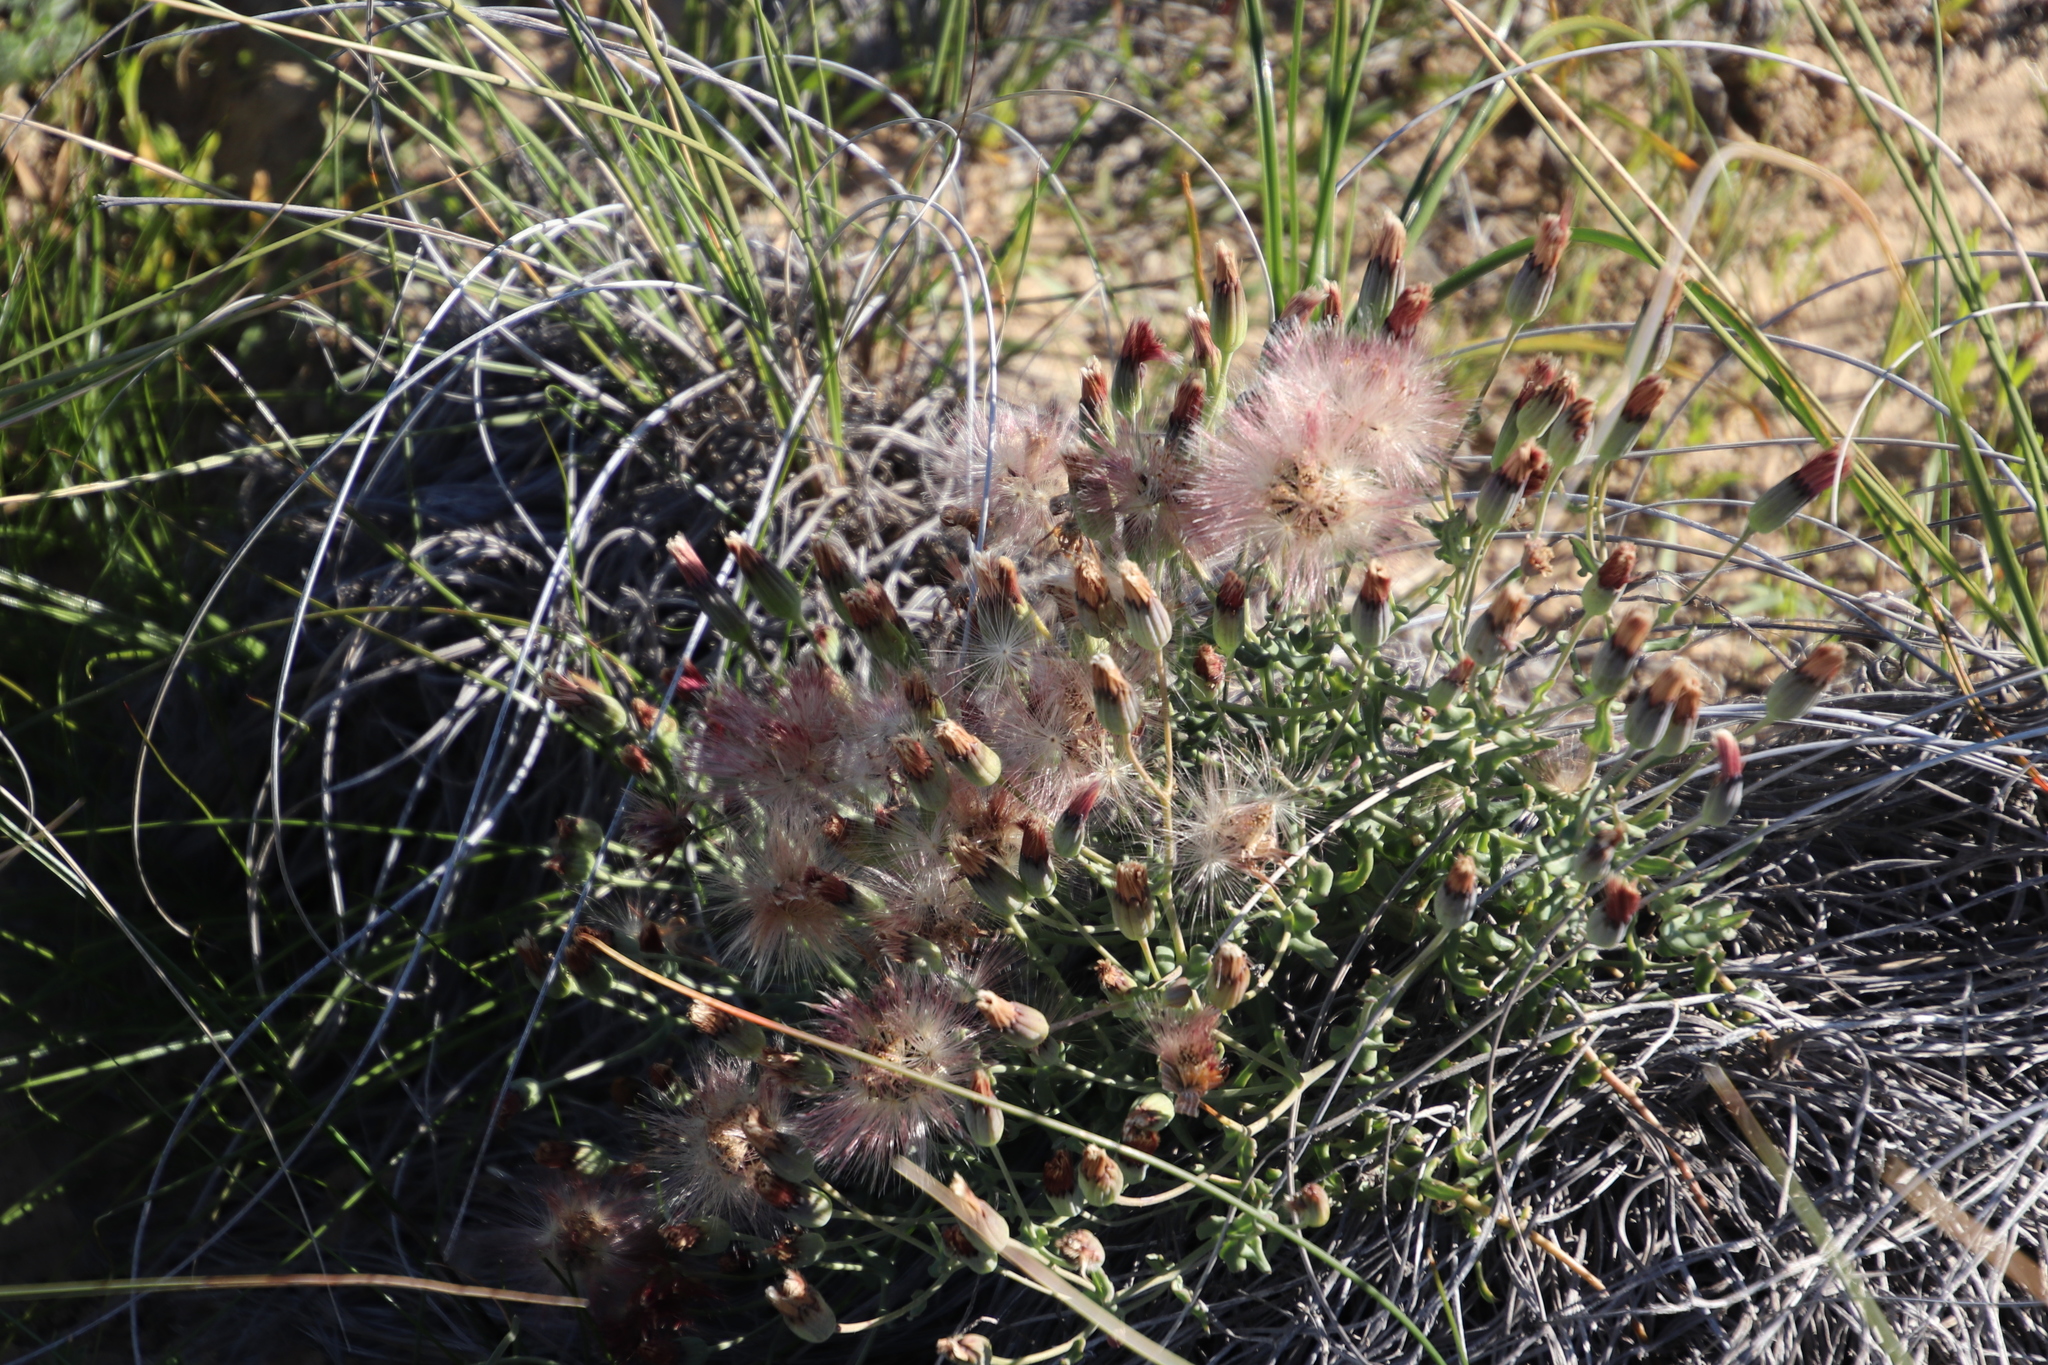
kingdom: Plantae
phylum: Tracheophyta
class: Magnoliopsida
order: Asterales
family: Asteraceae
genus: Othonna
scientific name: Othonna undulosa
